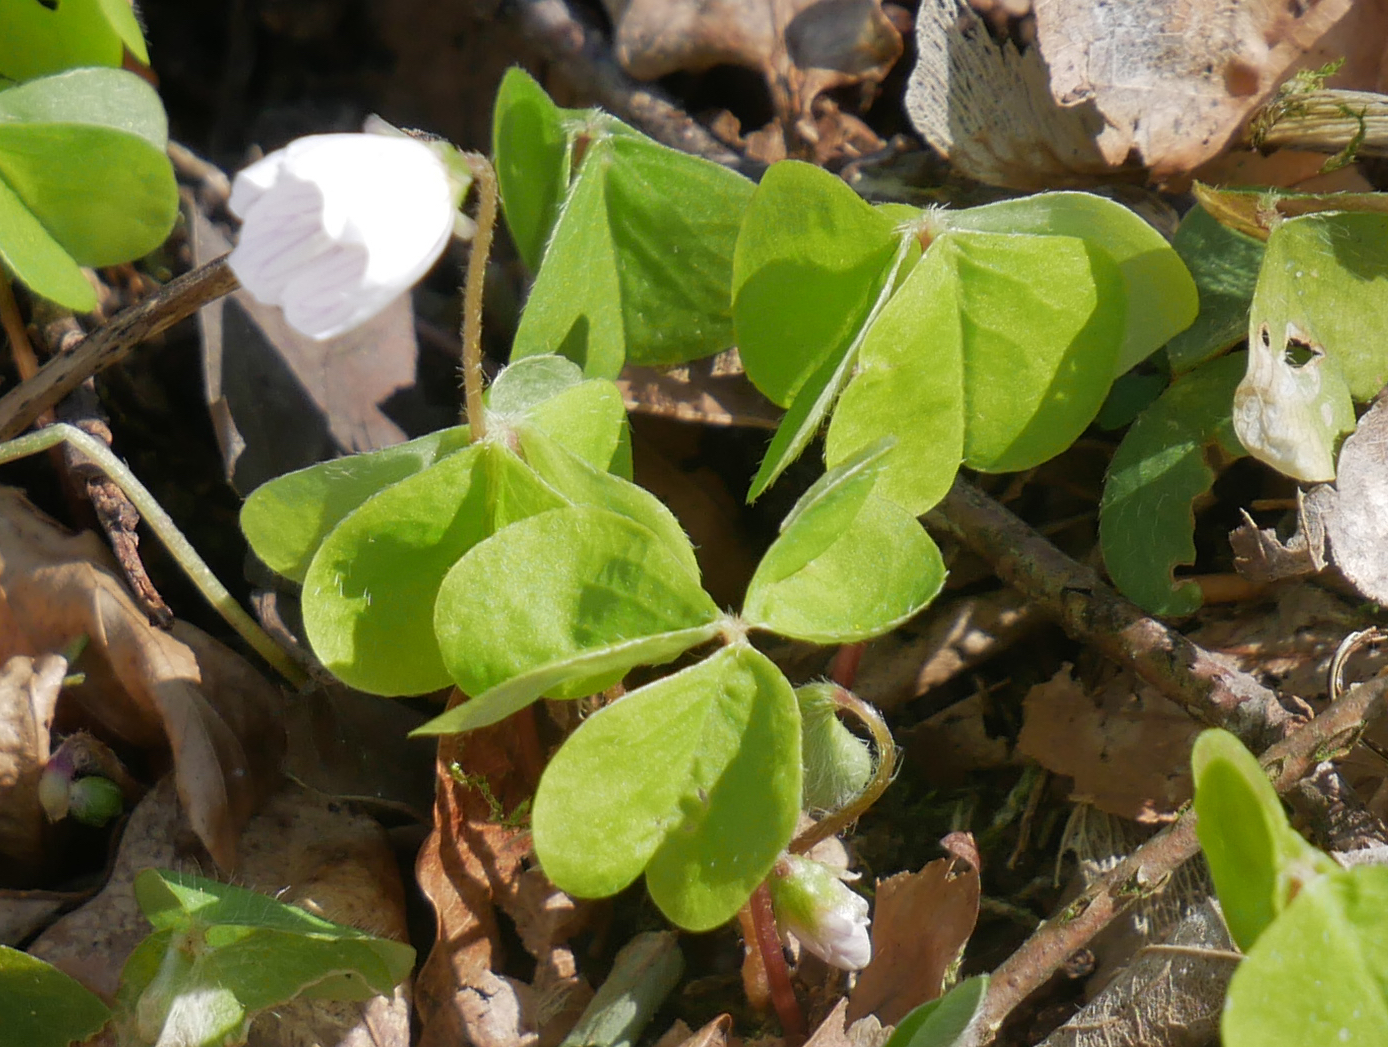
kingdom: Plantae
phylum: Tracheophyta
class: Magnoliopsida
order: Oxalidales
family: Oxalidaceae
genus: Oxalis
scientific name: Oxalis acetosella
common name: Wood-sorrel
